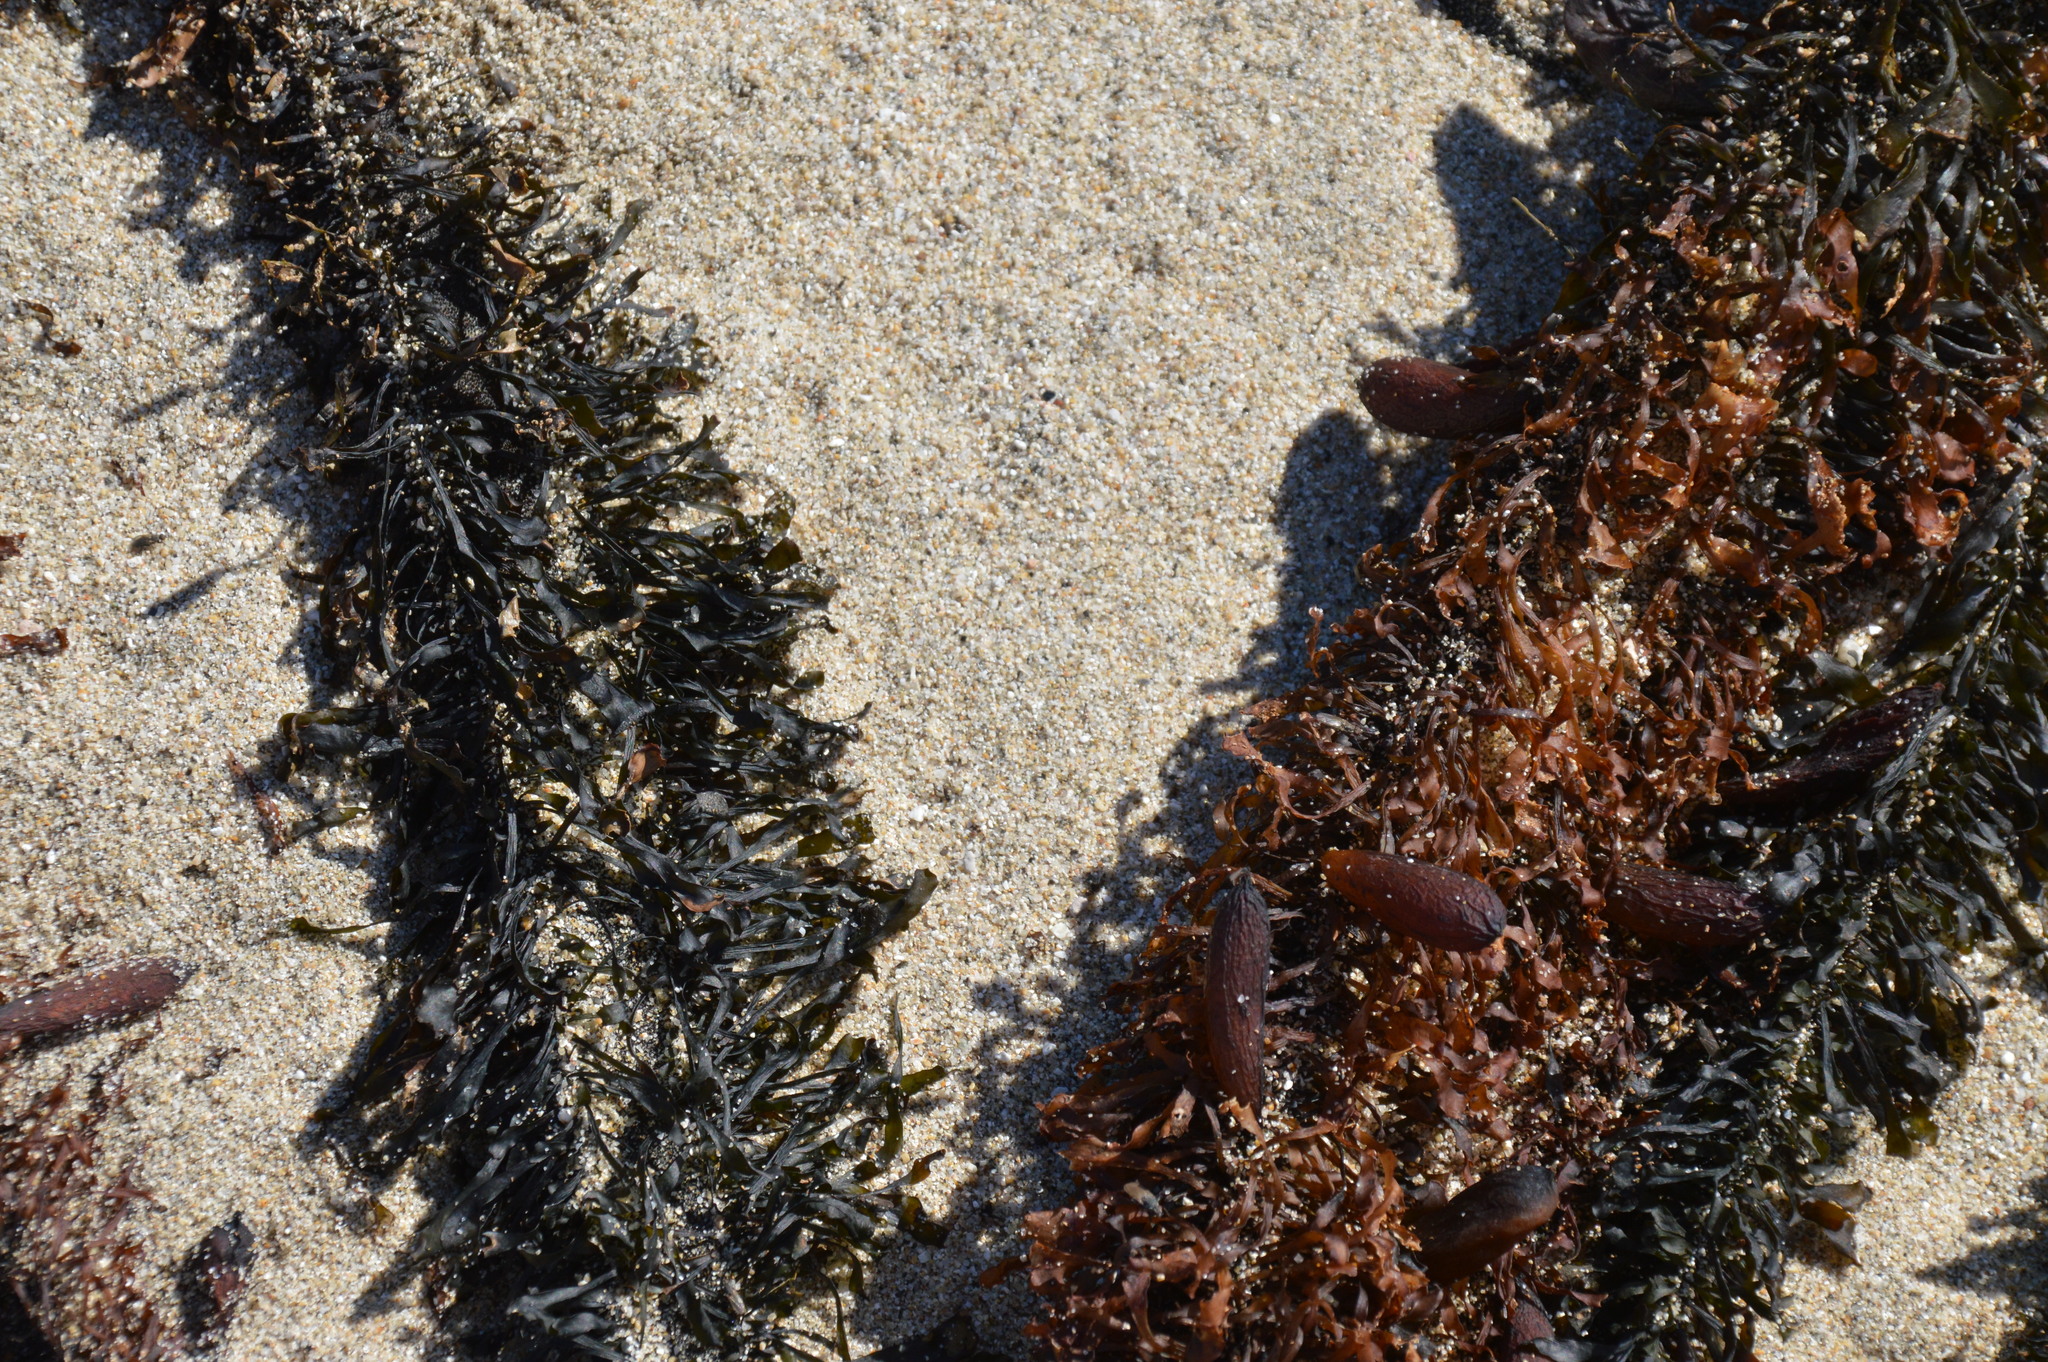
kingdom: Chromista
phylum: Ochrophyta
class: Phaeophyceae
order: Laminariales
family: Lessoniaceae
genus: Egregia
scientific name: Egregia menziesii
